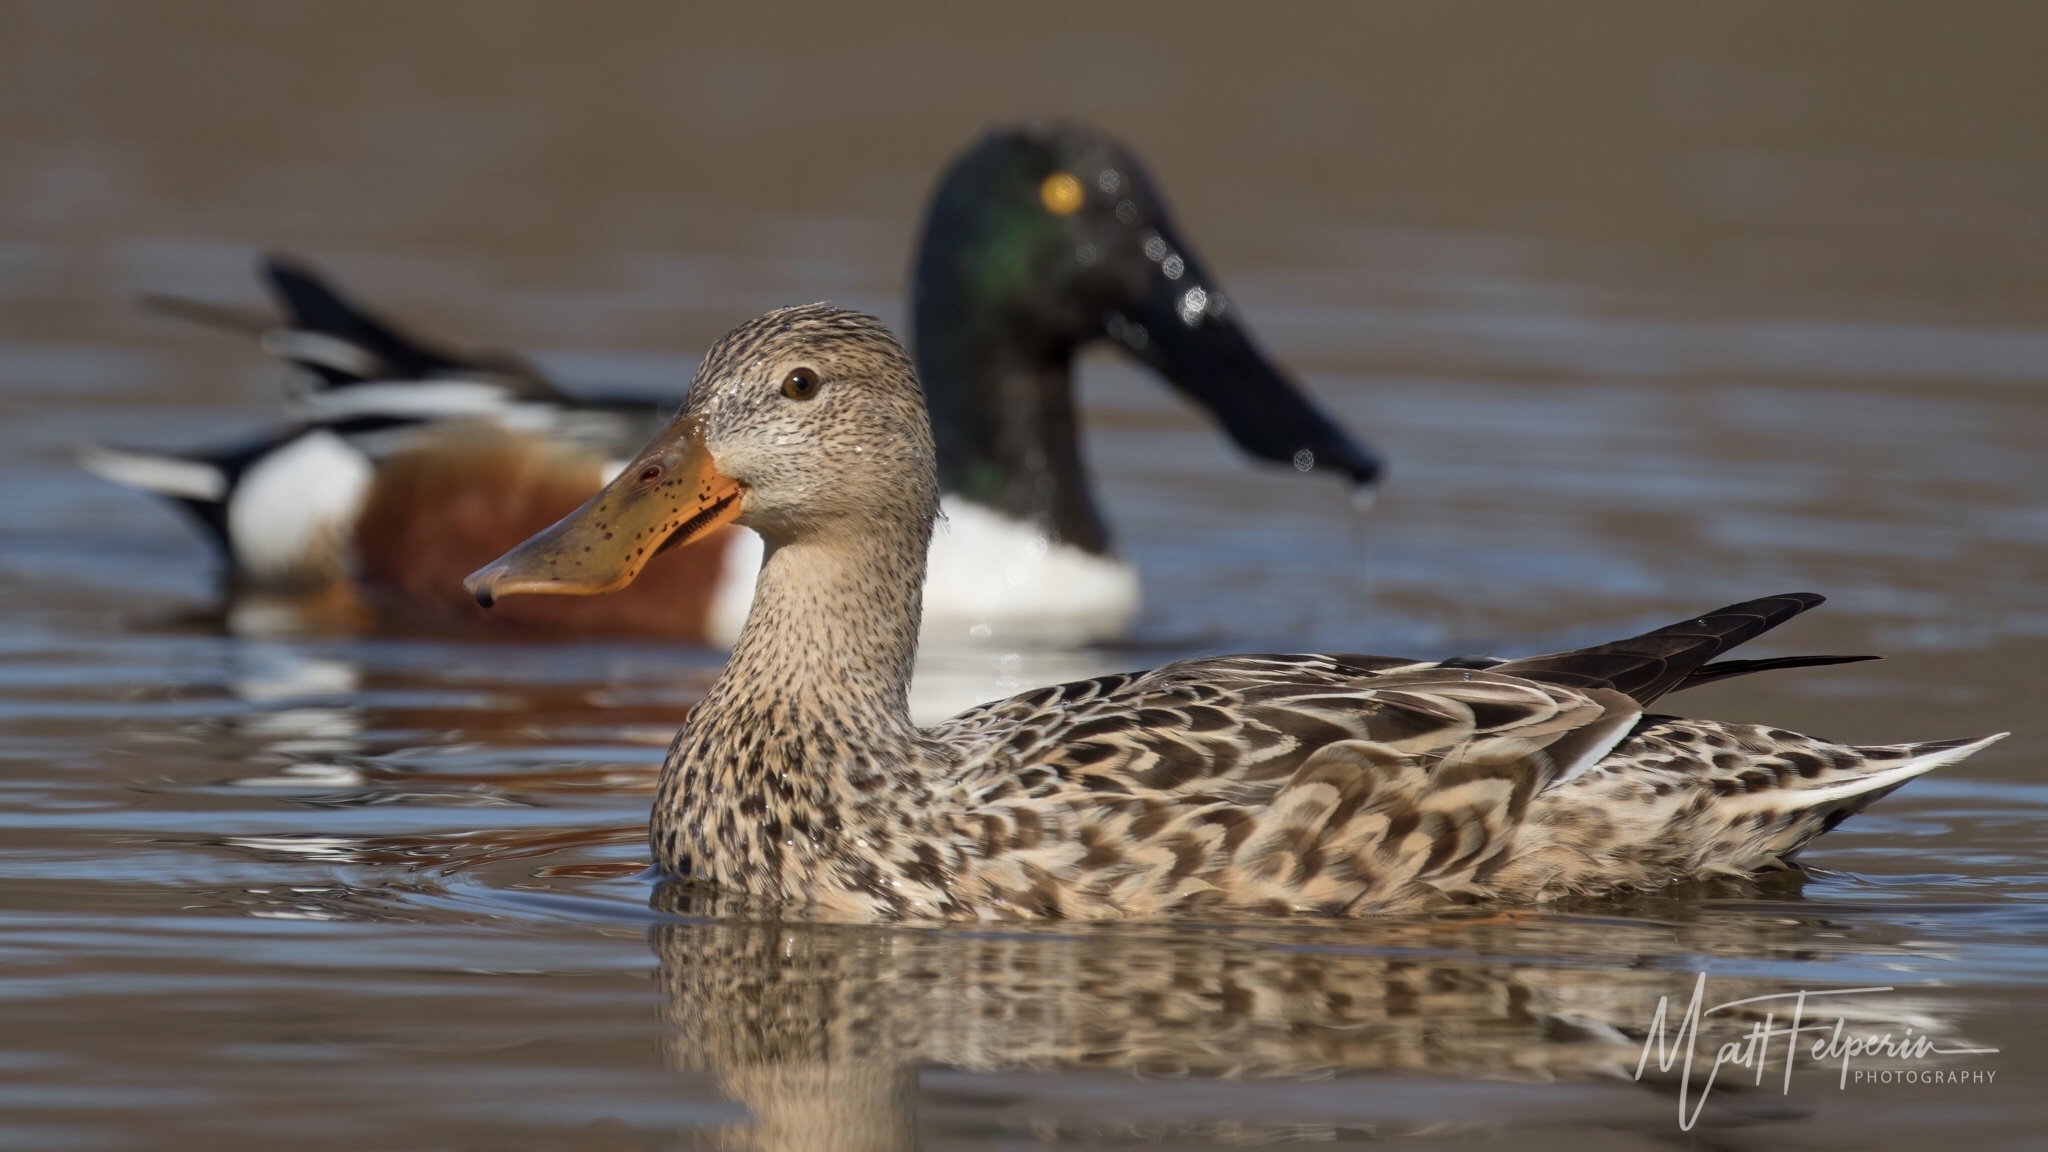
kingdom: Animalia
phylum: Chordata
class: Aves
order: Anseriformes
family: Anatidae
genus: Spatula
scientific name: Spatula clypeata
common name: Northern shoveler
